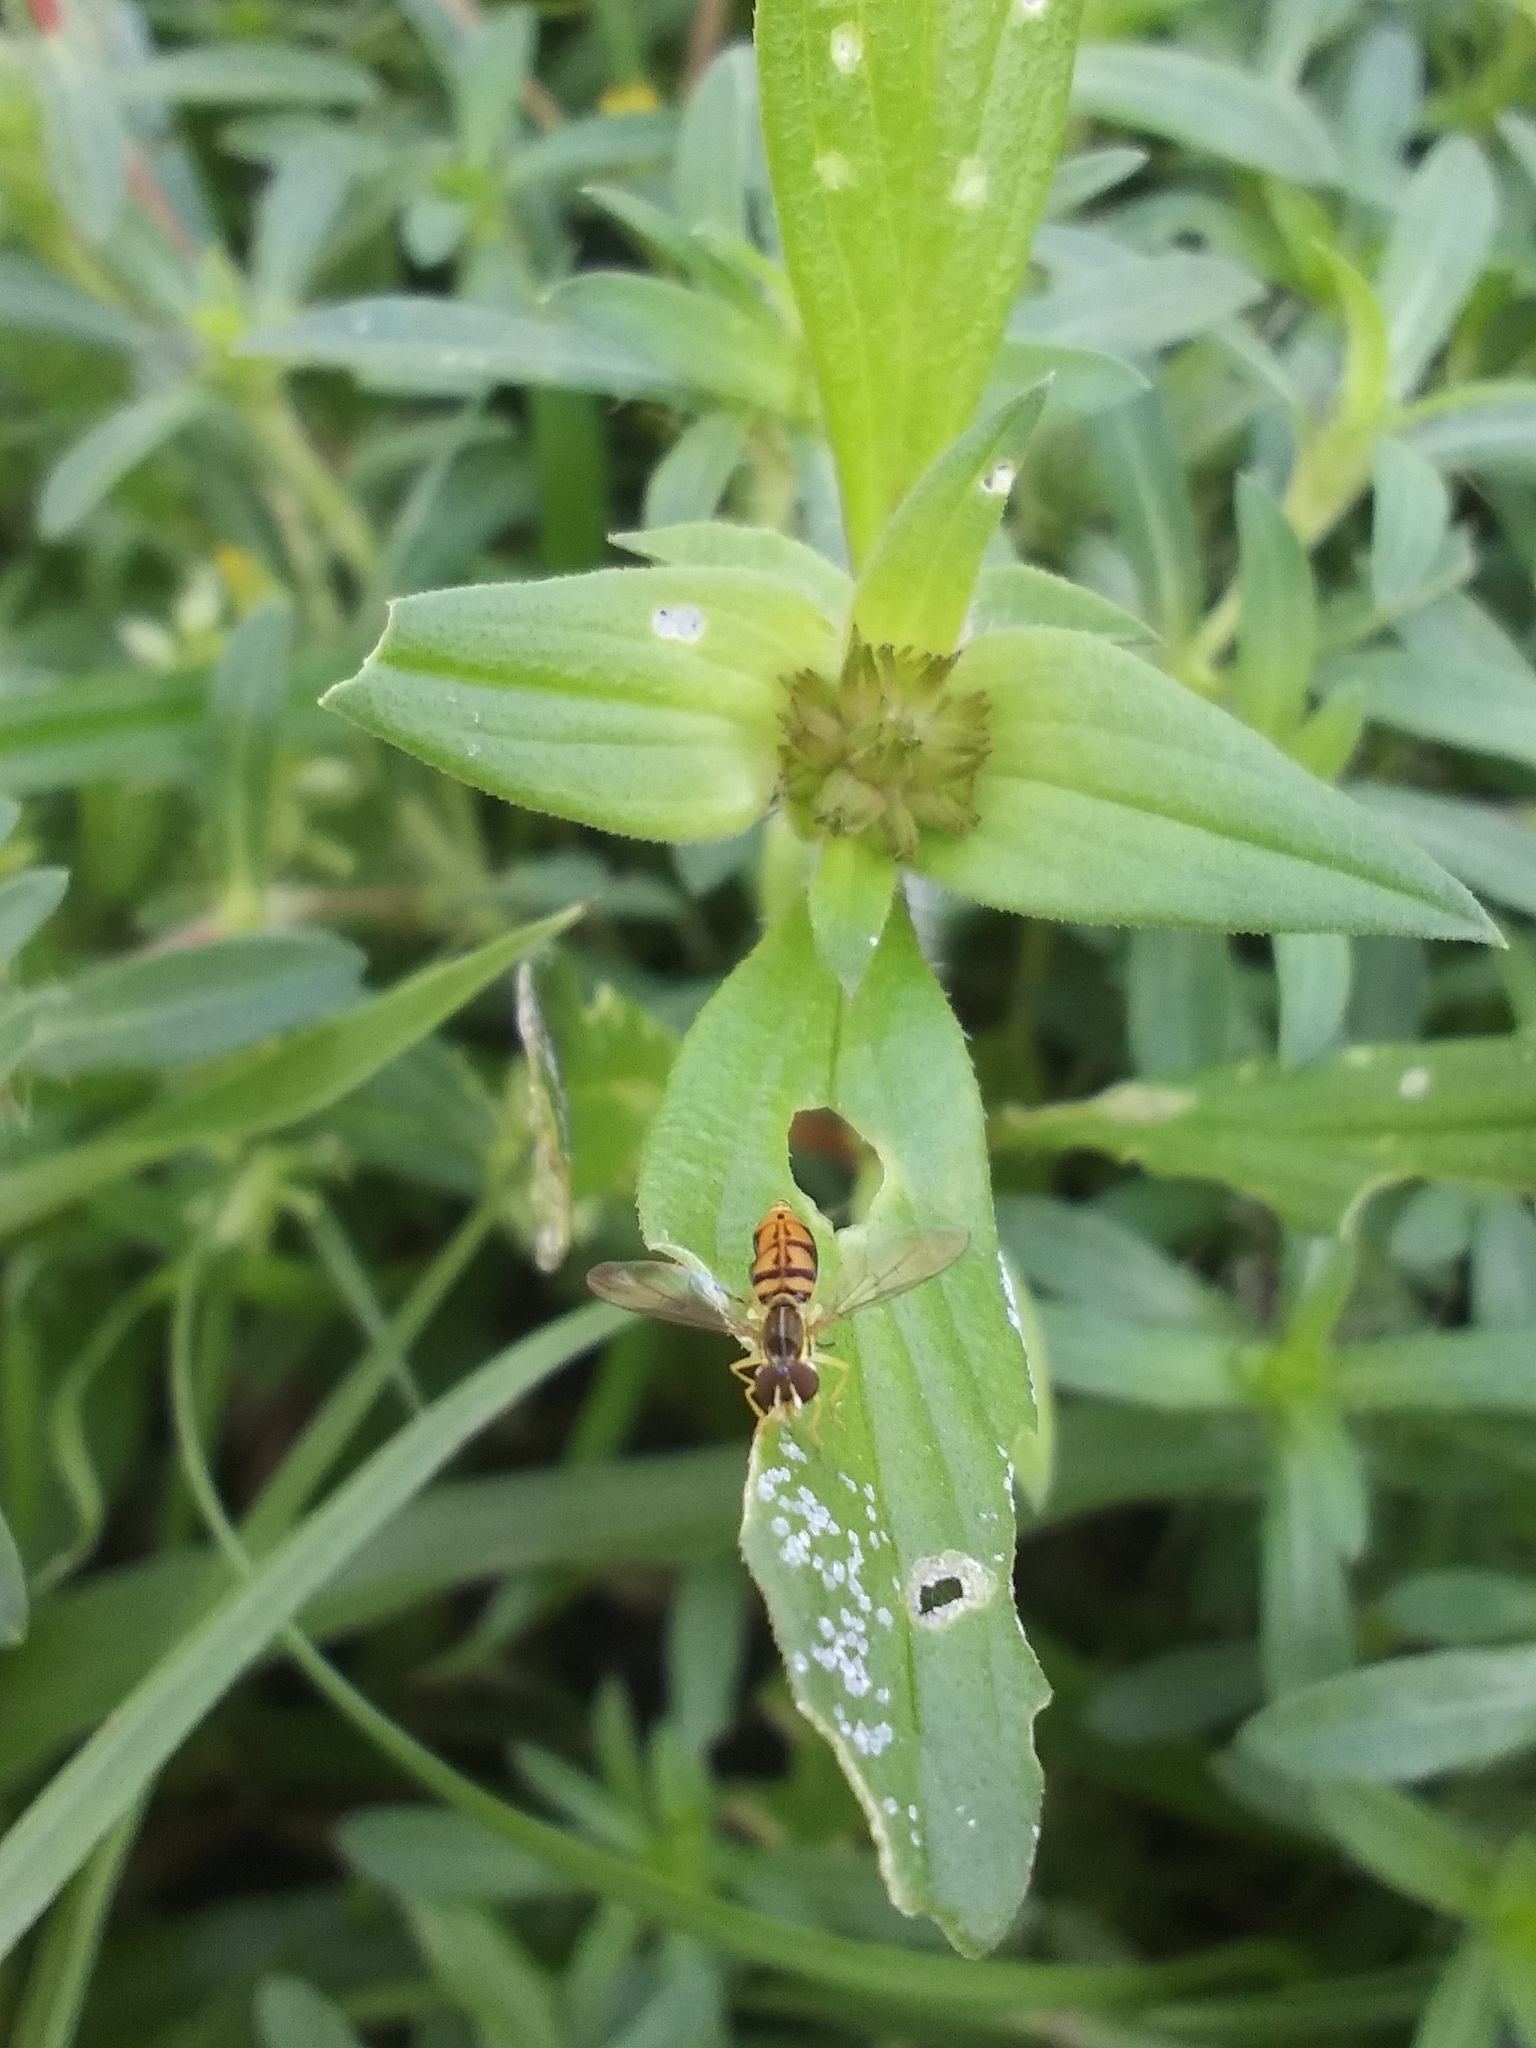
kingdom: Animalia
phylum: Arthropoda
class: Insecta
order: Diptera
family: Syrphidae
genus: Toxomerus
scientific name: Toxomerus marginatus
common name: Syrphid fly
